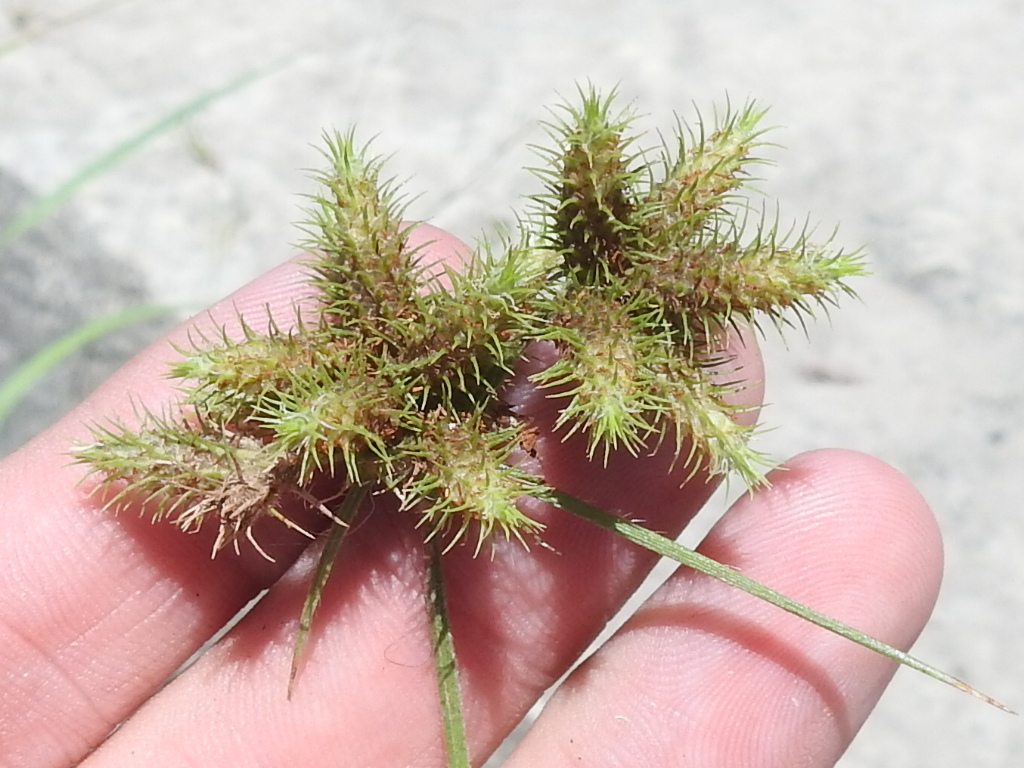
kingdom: Plantae
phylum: Tracheophyta
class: Liliopsida
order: Poales
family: Cyperaceae
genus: Fuirena
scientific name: Fuirena simplex
